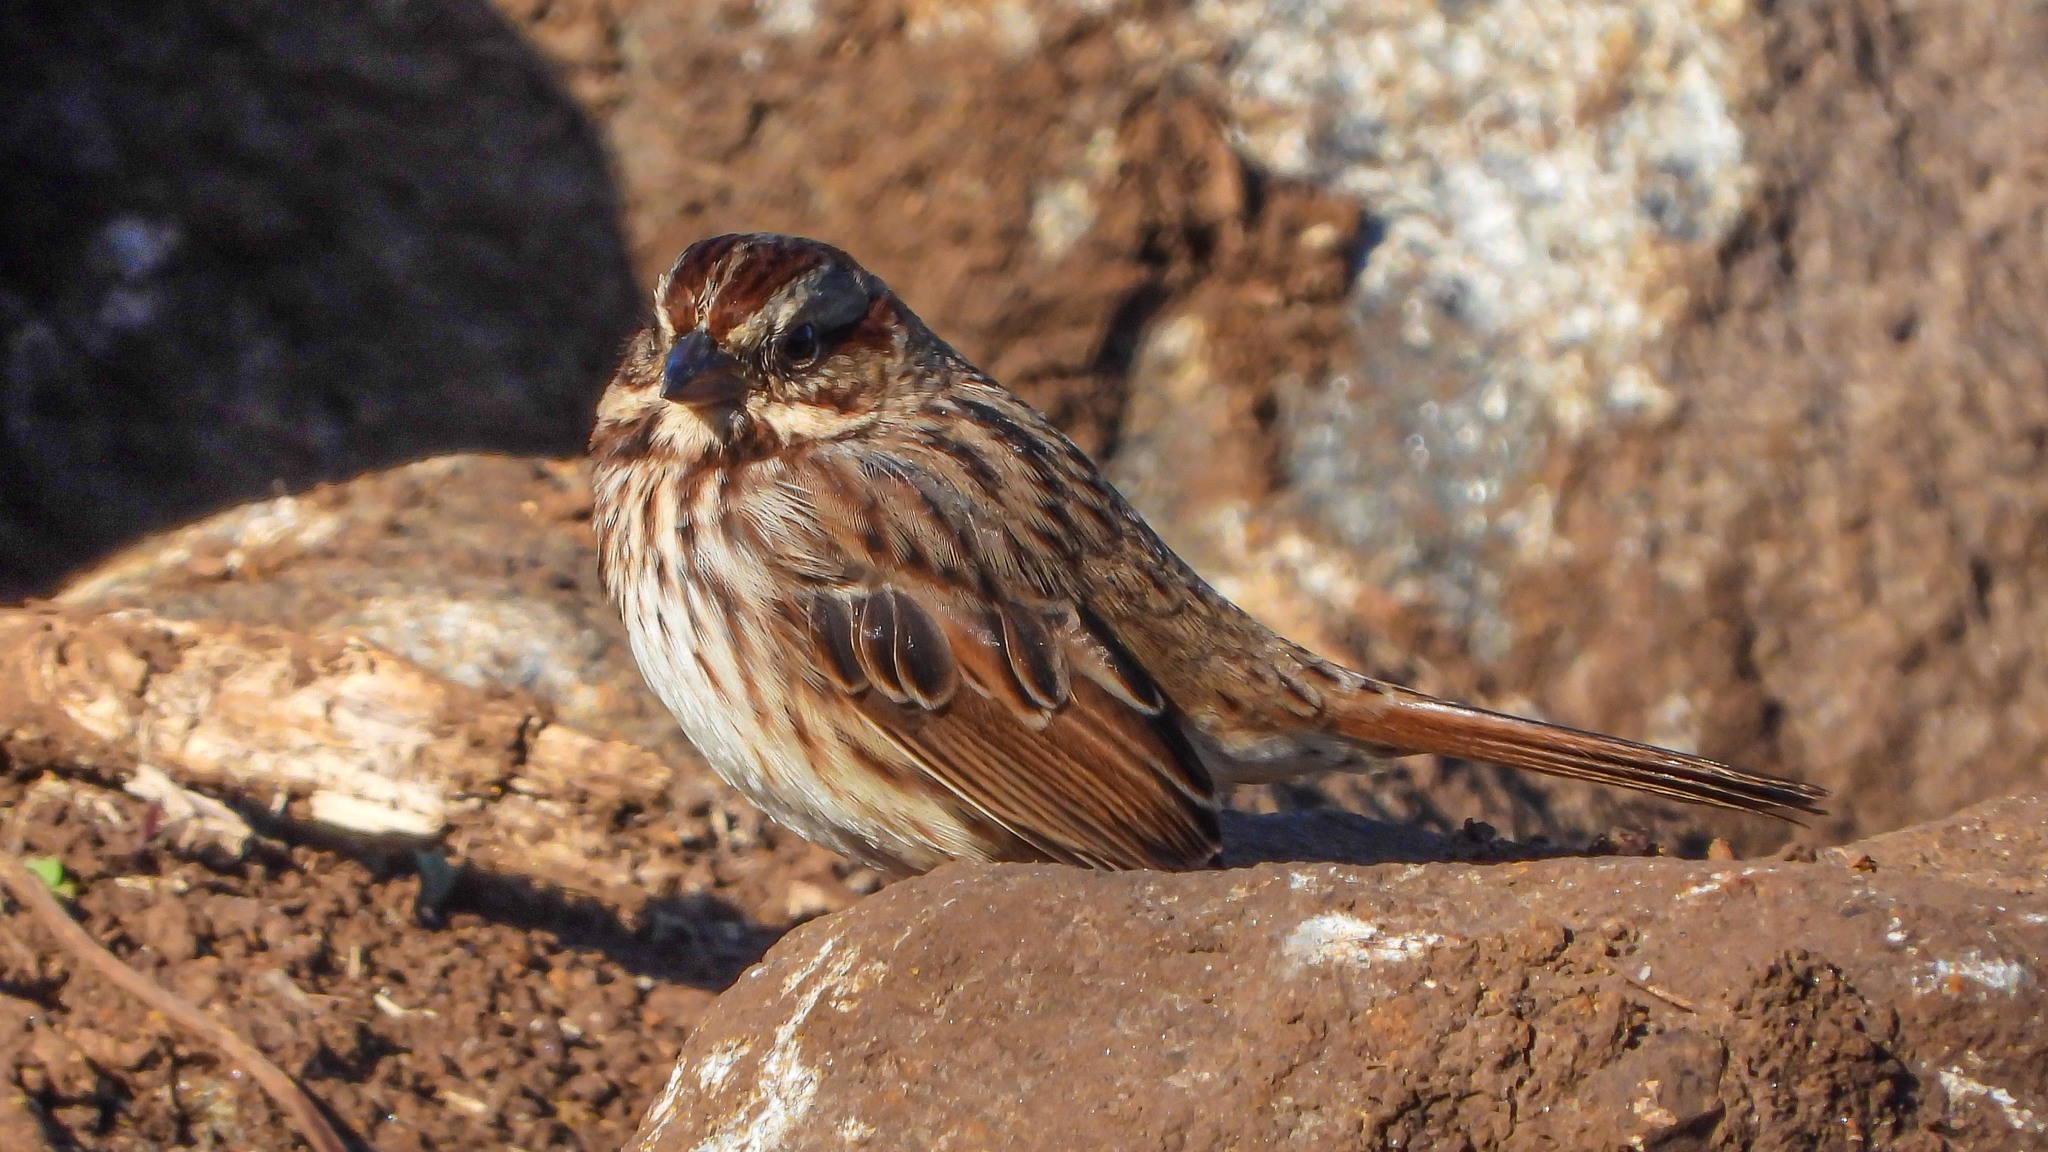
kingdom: Animalia
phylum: Chordata
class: Aves
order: Passeriformes
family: Passerellidae
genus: Melospiza
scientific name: Melospiza melodia
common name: Song sparrow
